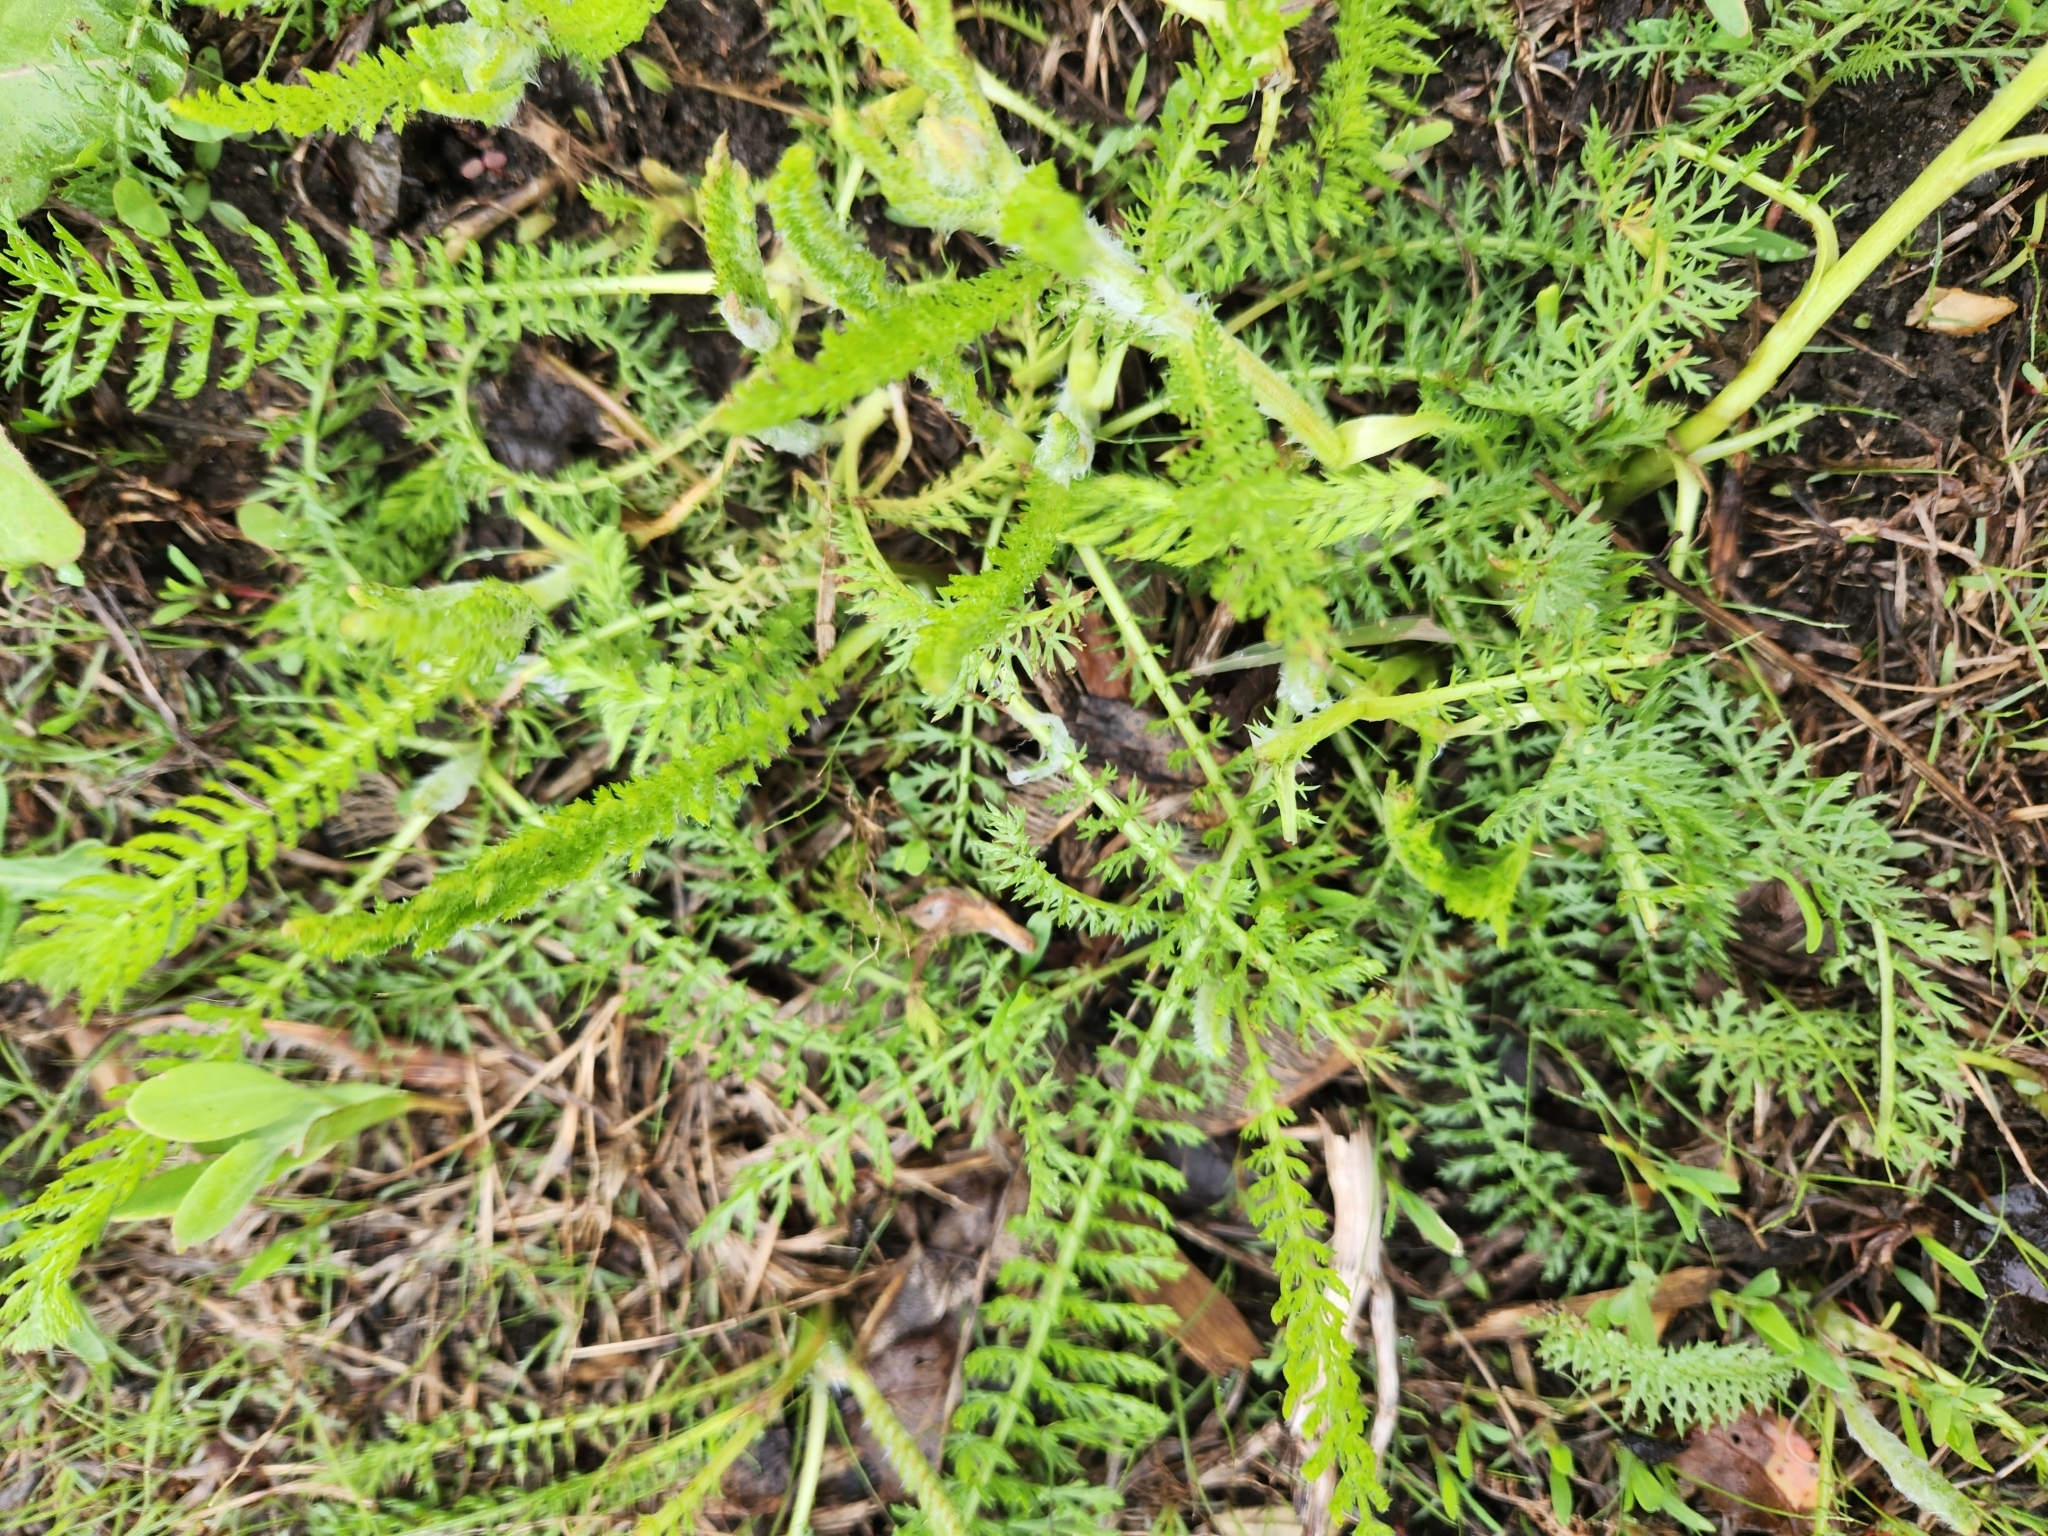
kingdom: Plantae
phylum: Tracheophyta
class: Magnoliopsida
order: Asterales
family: Asteraceae
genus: Achillea
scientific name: Achillea millefolium
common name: Yarrow
